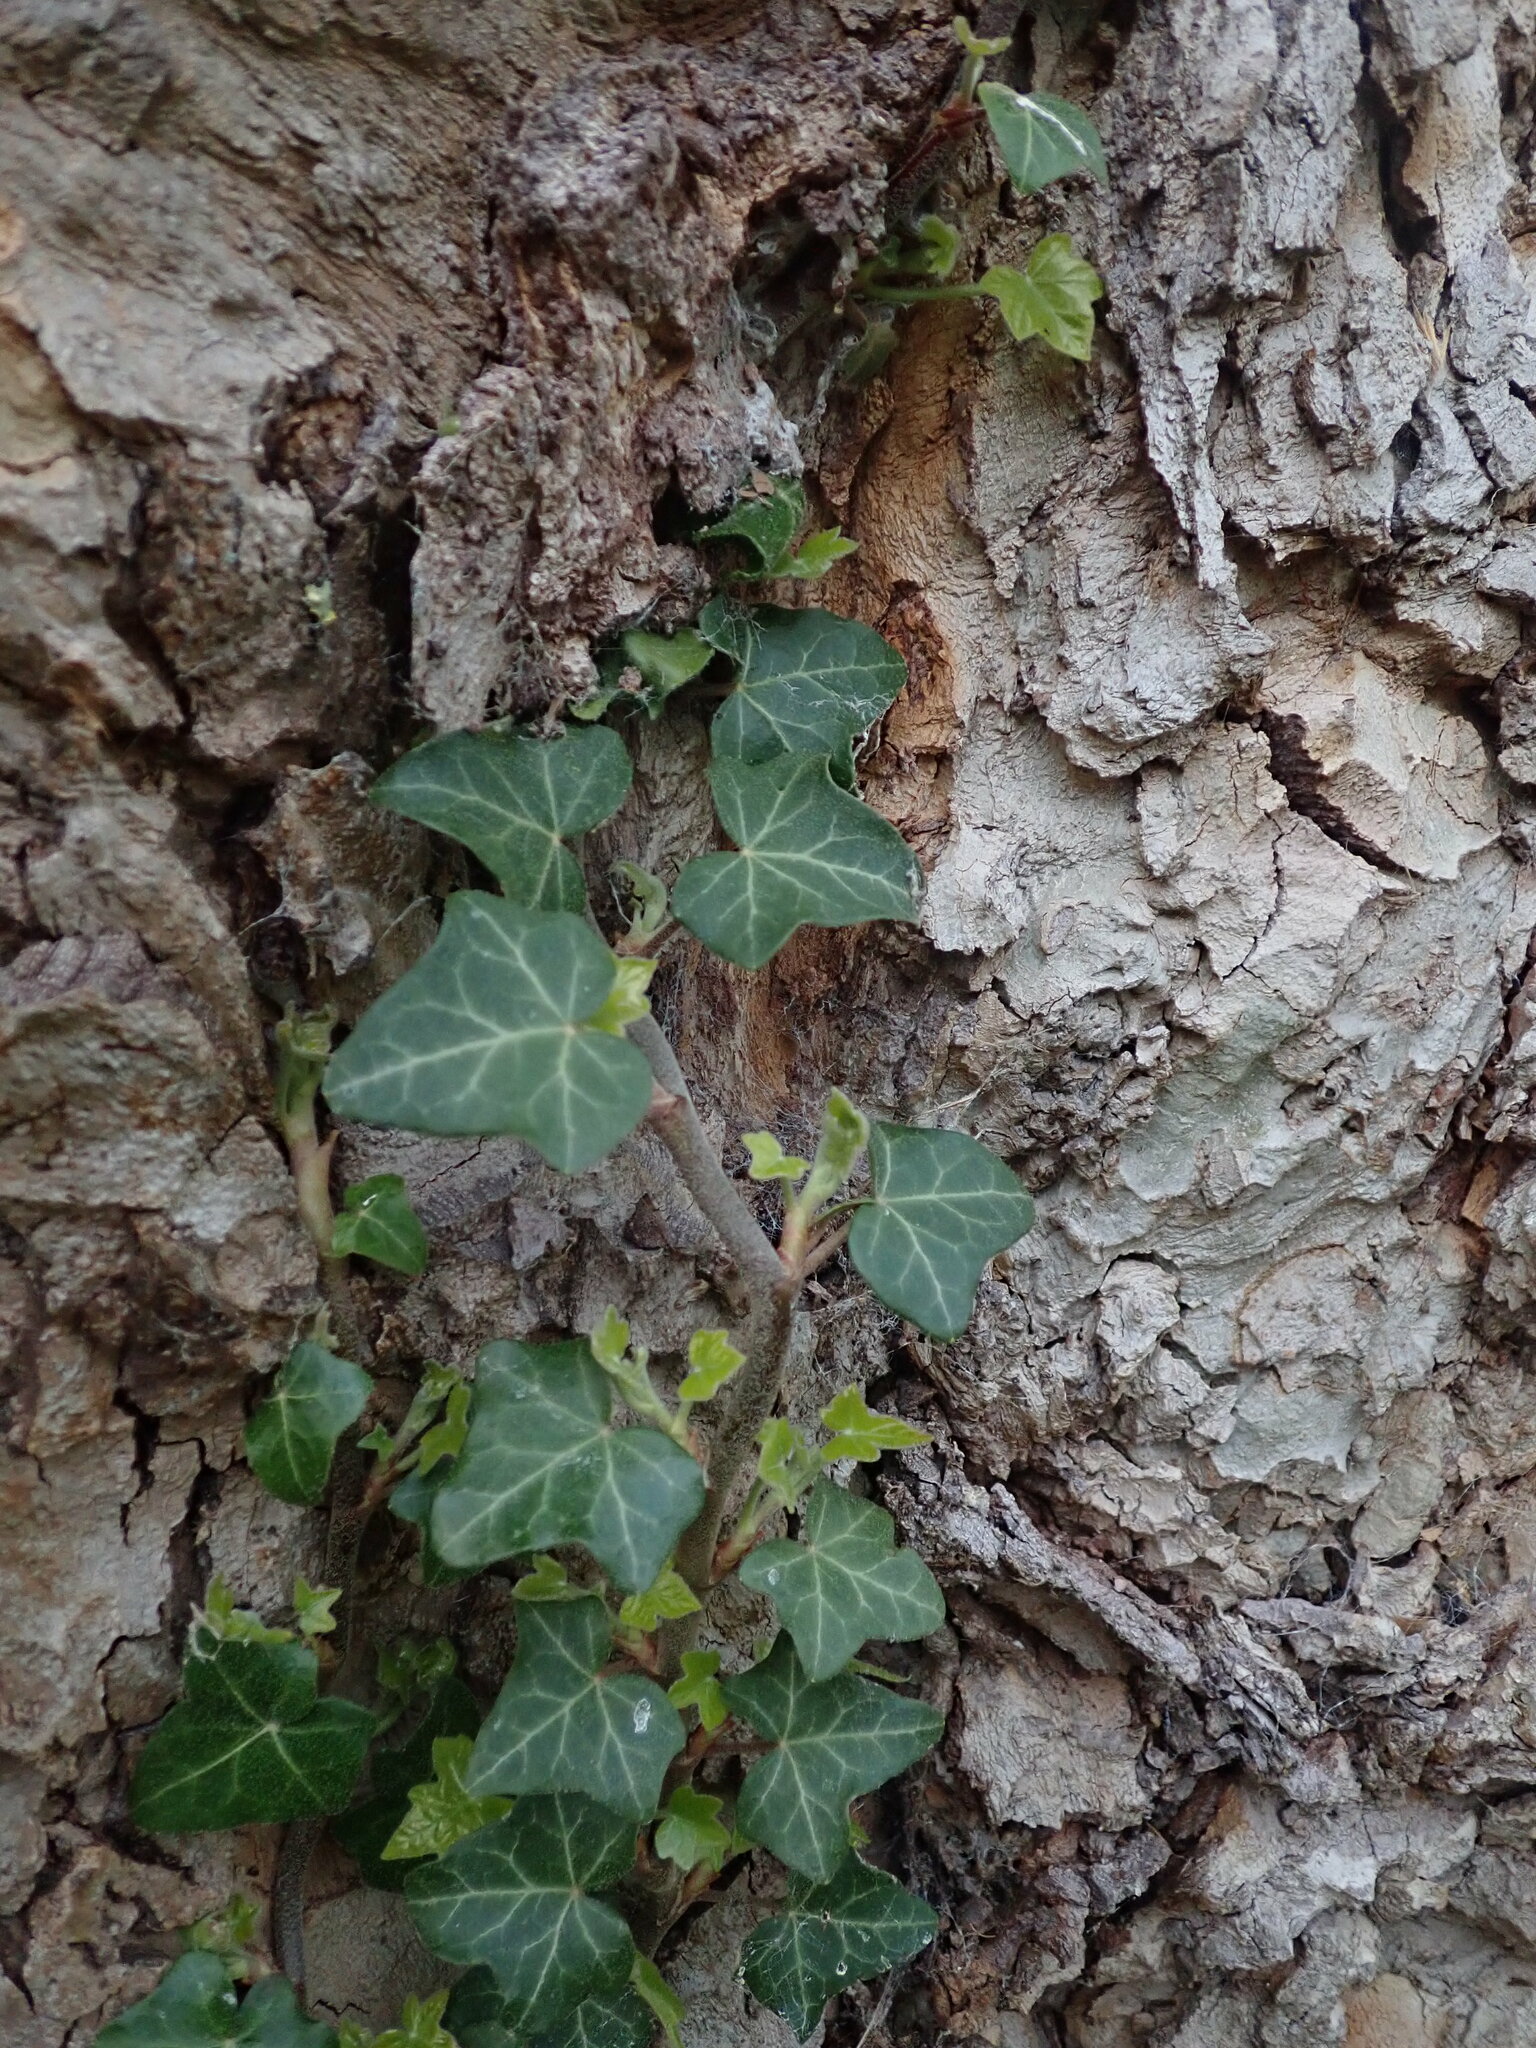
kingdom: Plantae
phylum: Tracheophyta
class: Magnoliopsida
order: Apiales
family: Araliaceae
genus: Hedera
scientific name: Hedera helix
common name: Ivy
